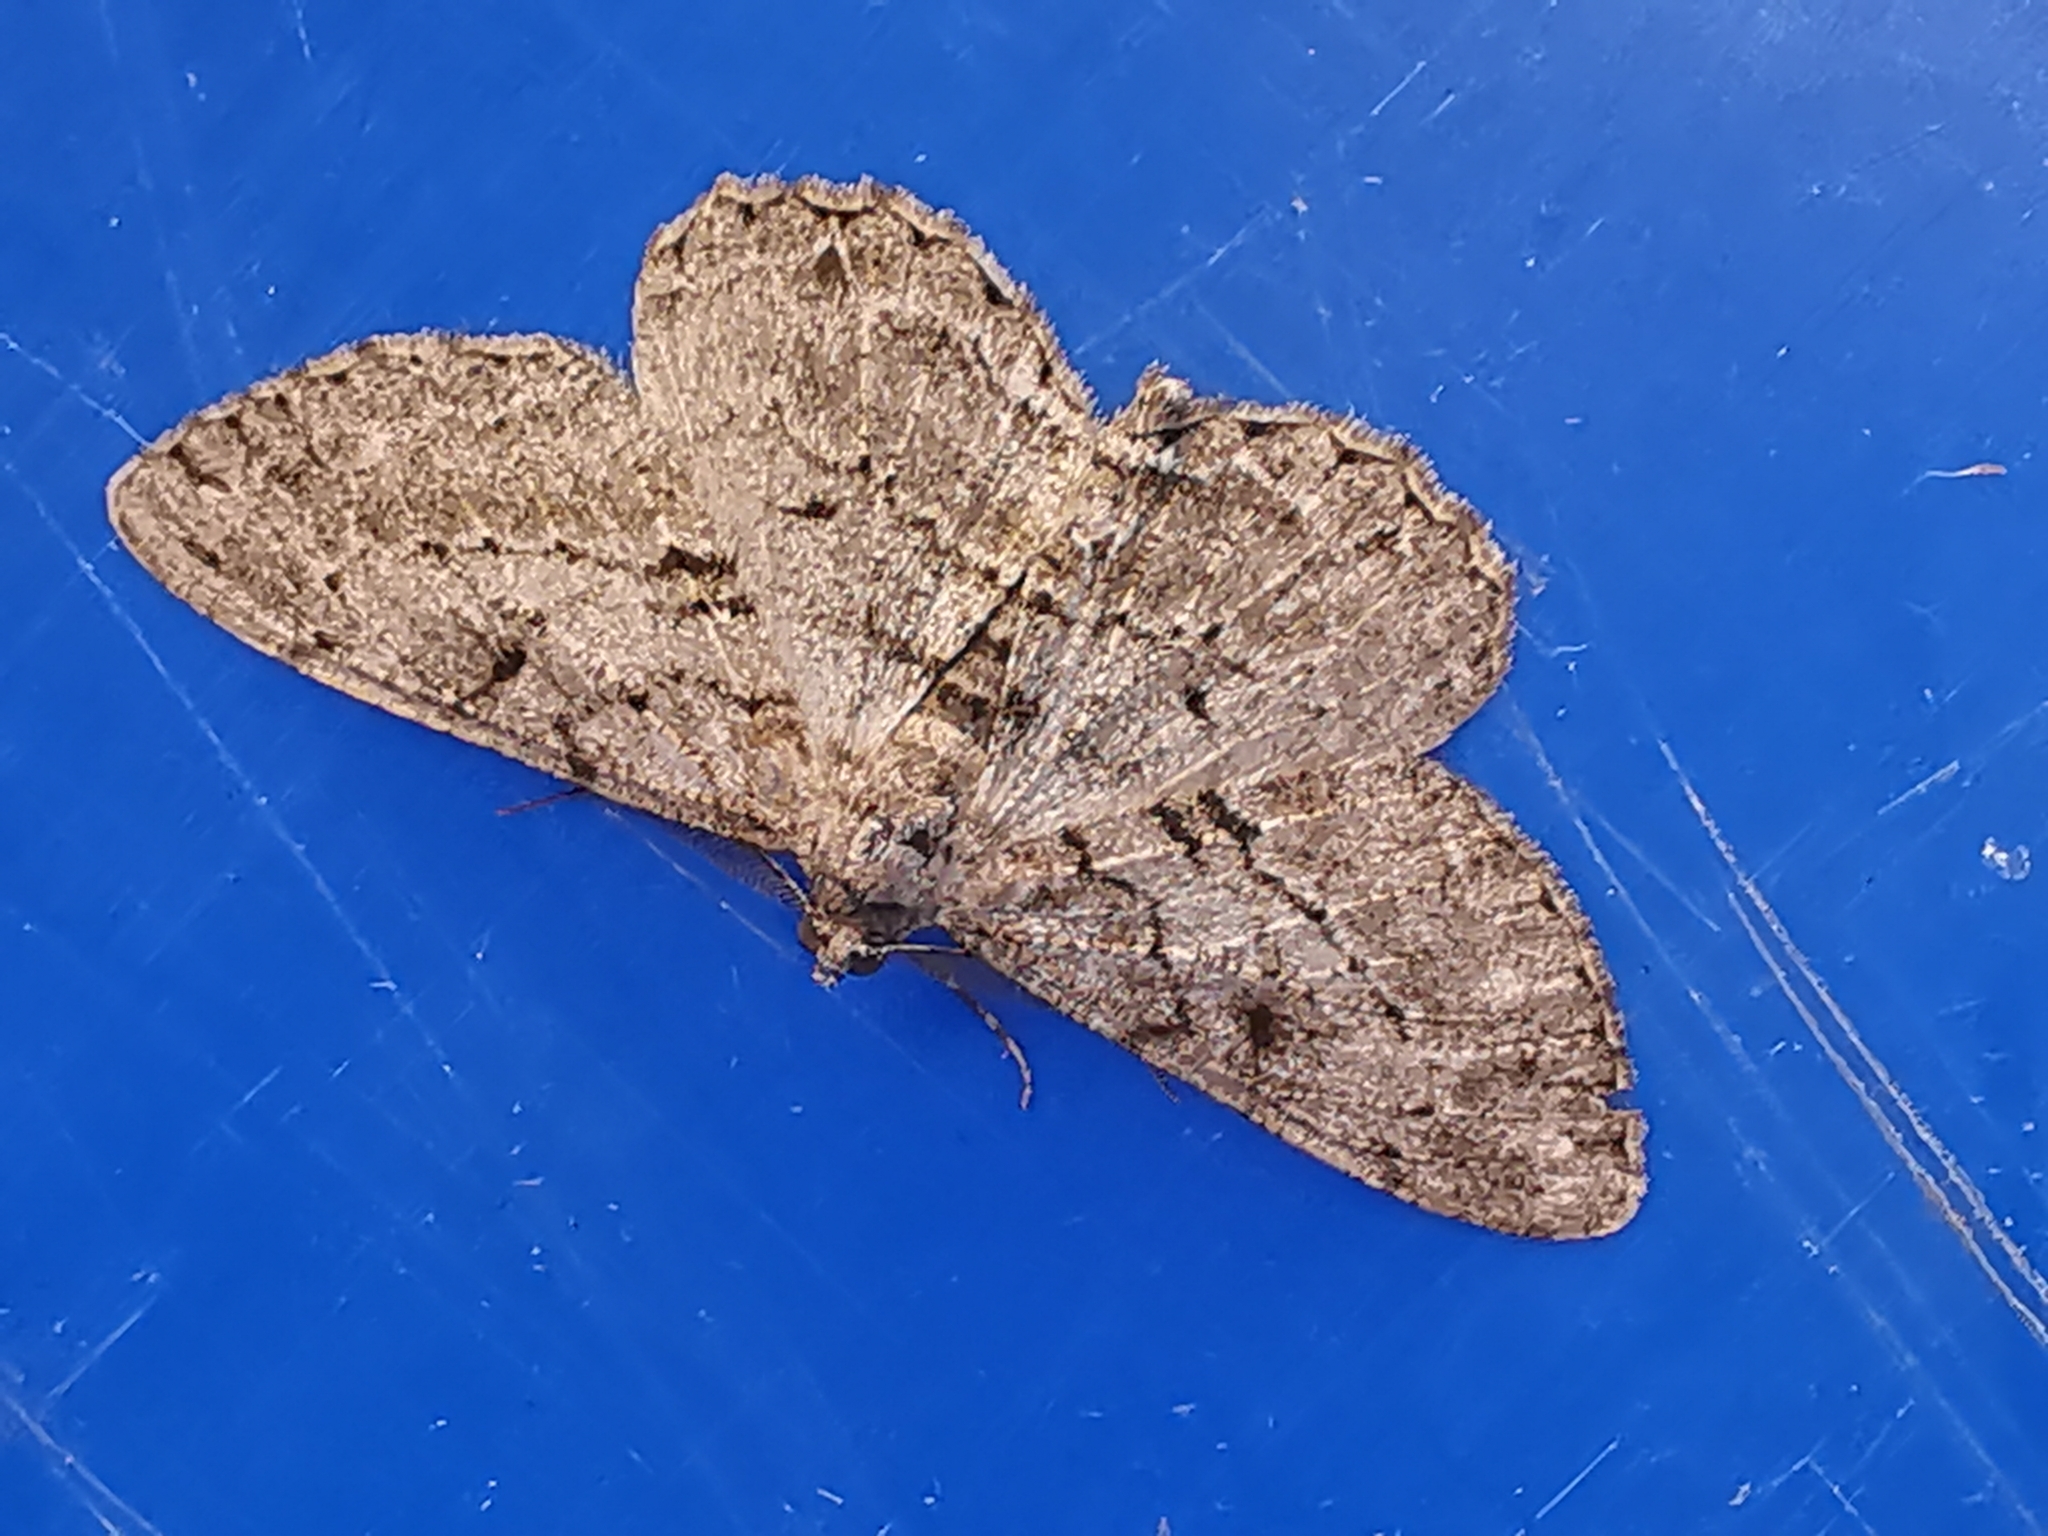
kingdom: Animalia
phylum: Arthropoda
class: Insecta
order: Lepidoptera
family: Geometridae
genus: Peribatodes
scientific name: Peribatodes rhomboidaria
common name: Willow beauty
